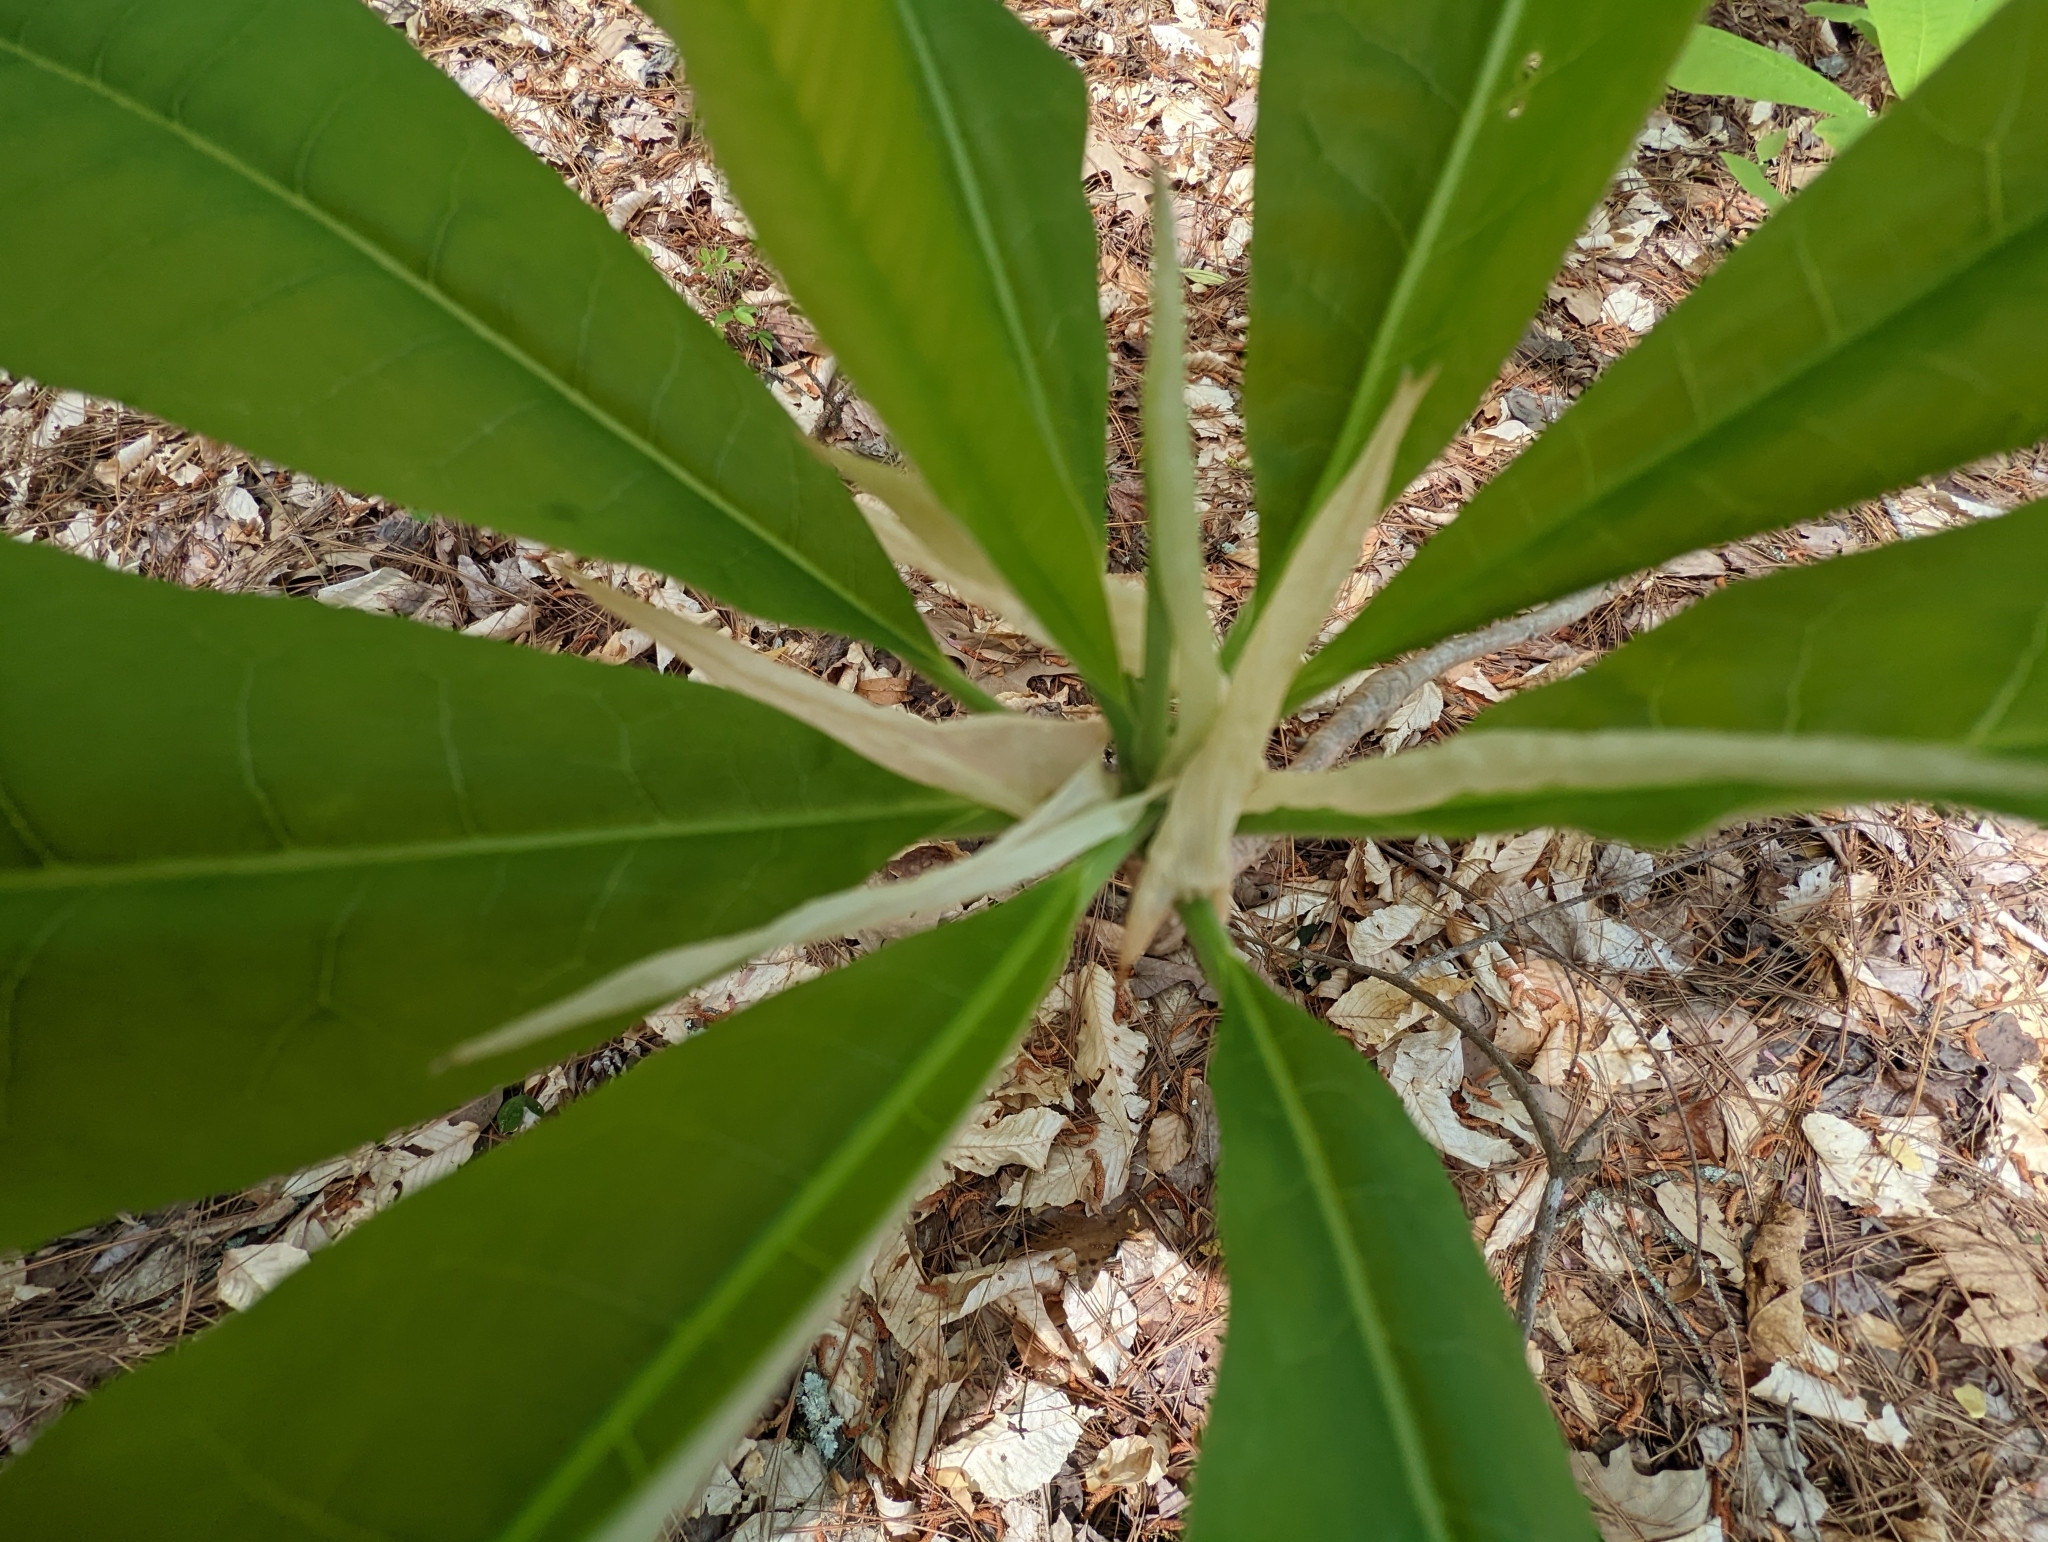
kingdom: Plantae
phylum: Tracheophyta
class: Magnoliopsida
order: Magnoliales
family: Magnoliaceae
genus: Magnolia
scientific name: Magnolia tripetala
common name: Umbrella magnolia
